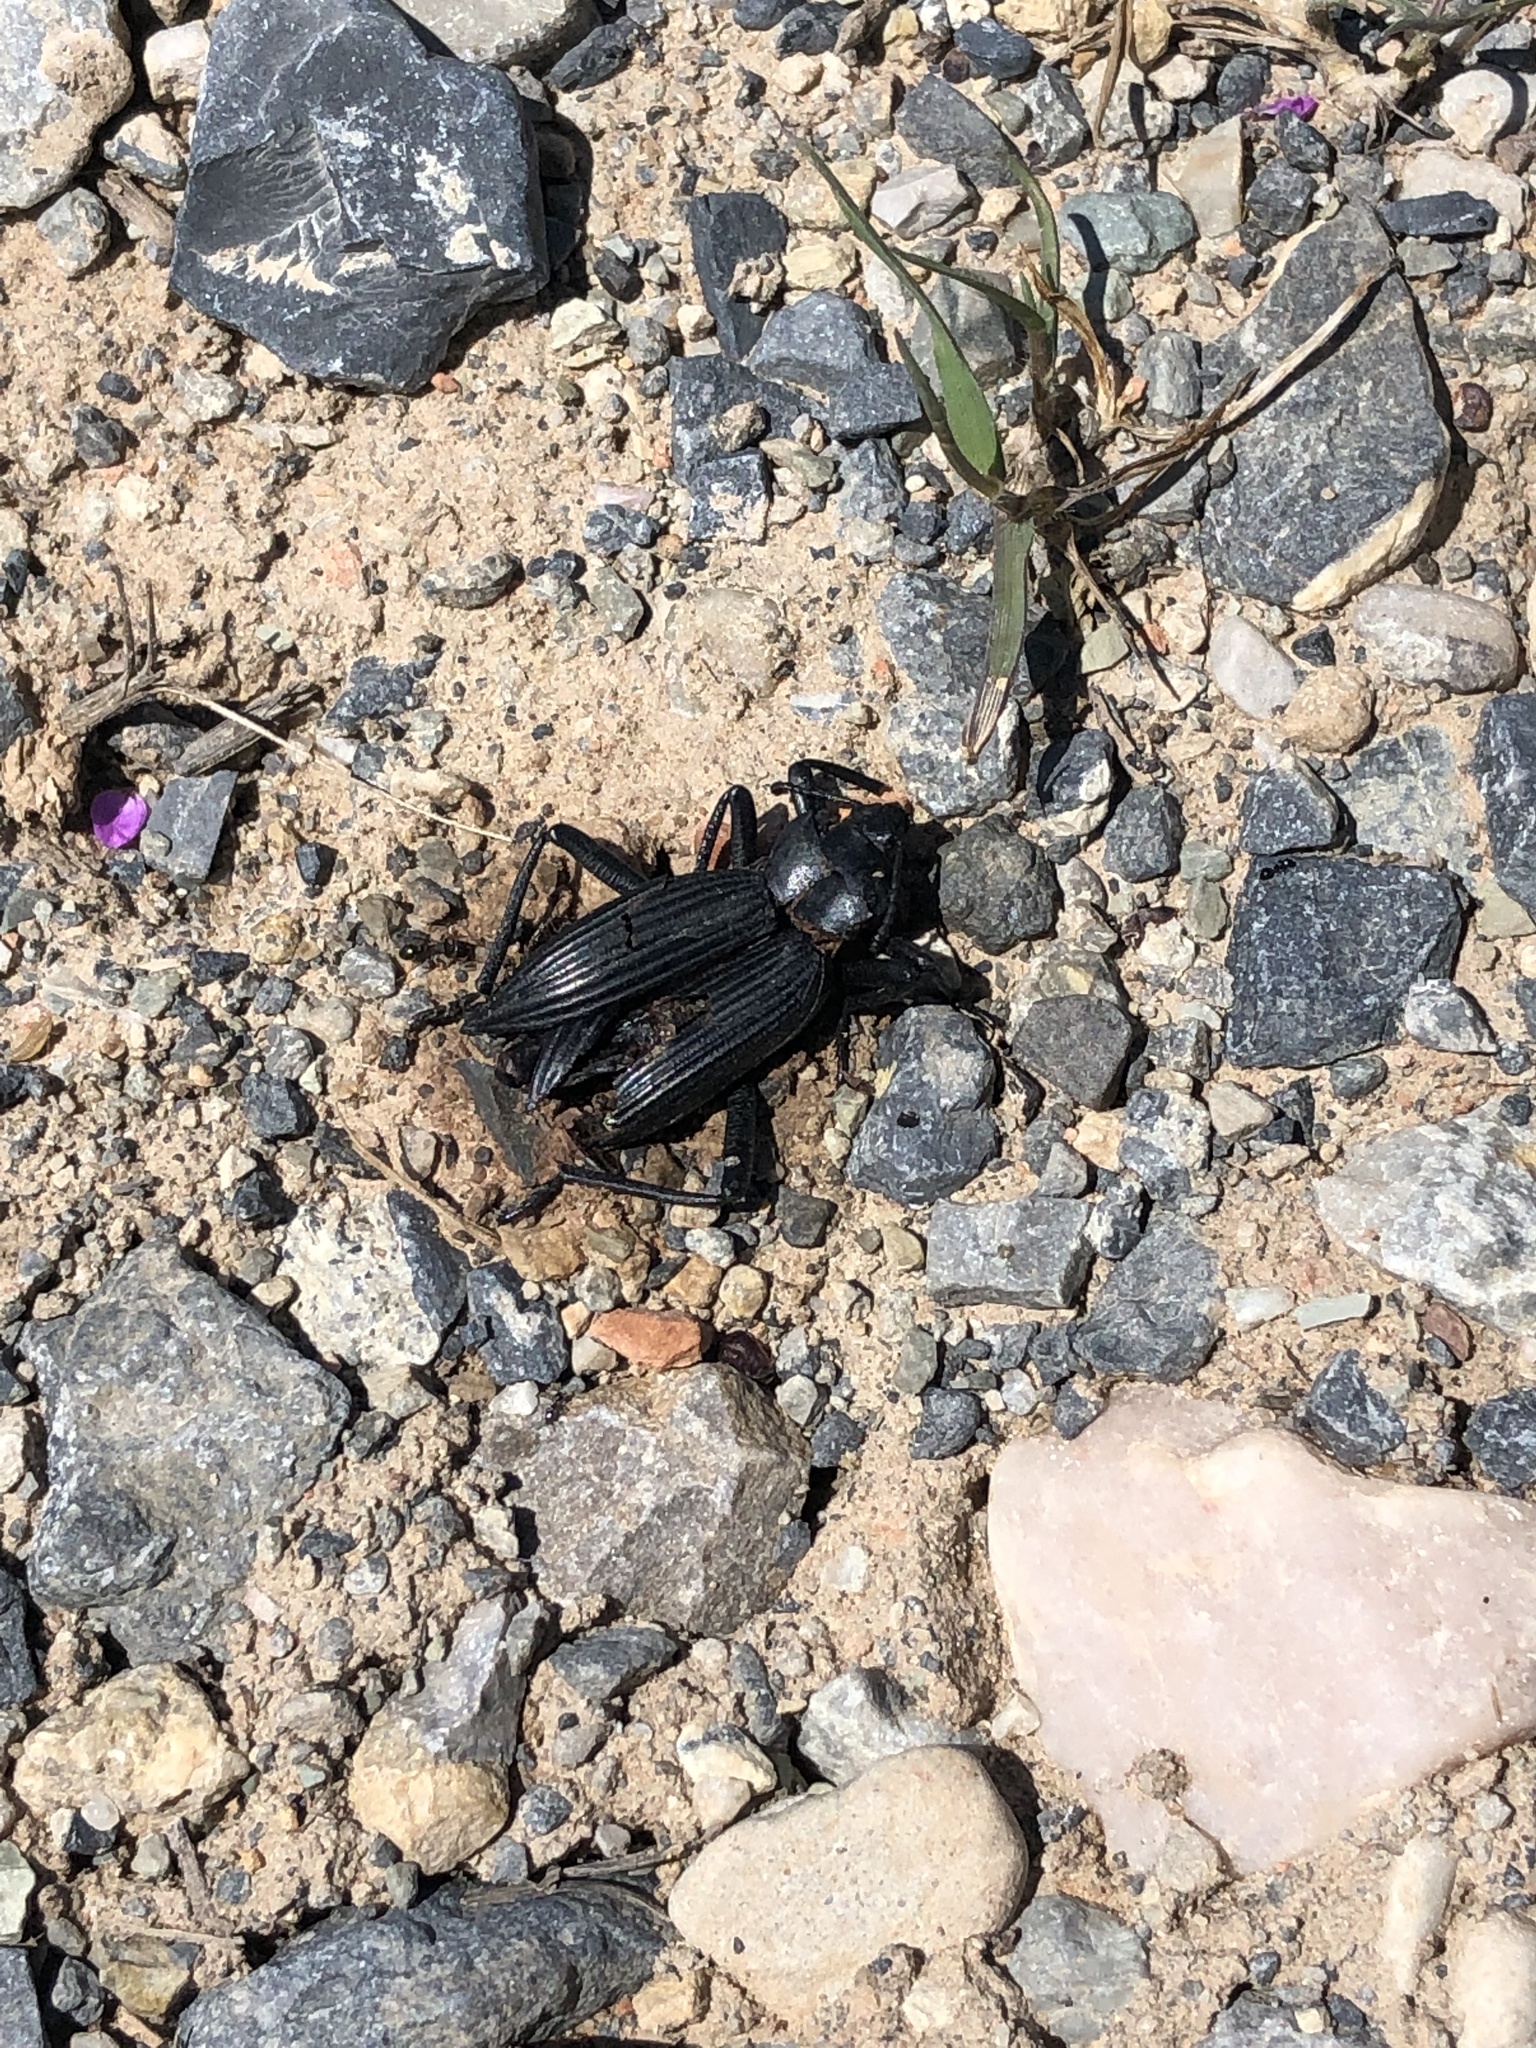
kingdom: Animalia
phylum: Arthropoda
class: Insecta
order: Coleoptera
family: Tenebrionidae
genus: Eleodes
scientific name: Eleodes obscura
